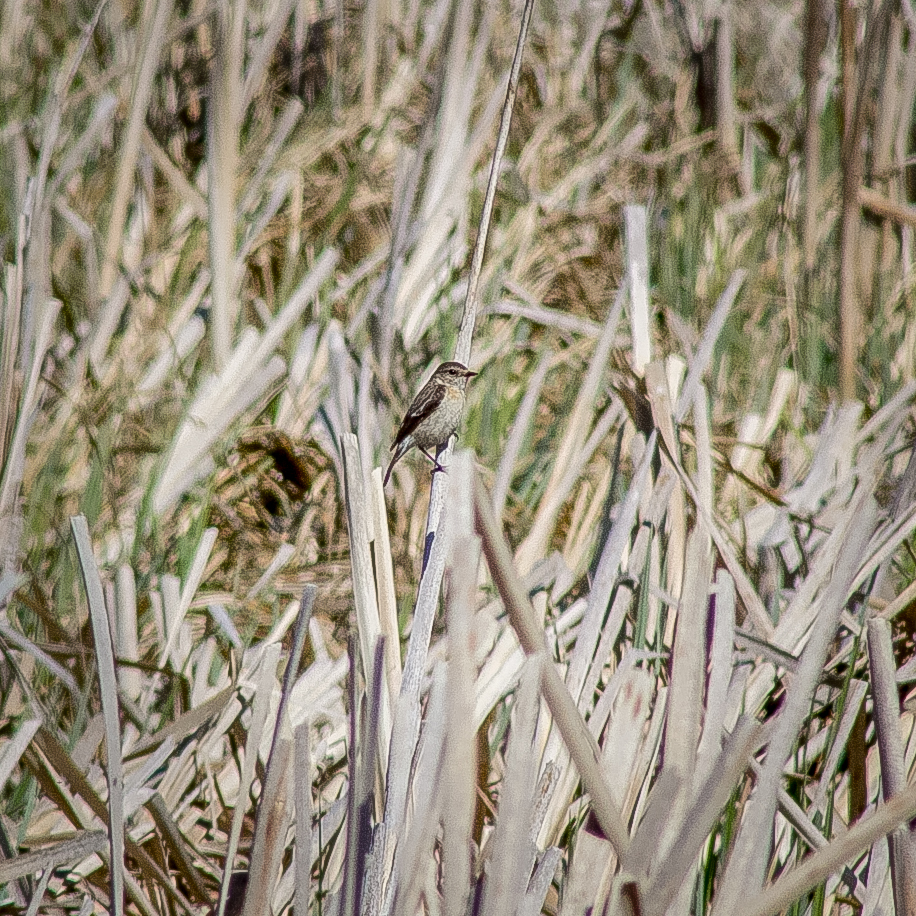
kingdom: Animalia
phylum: Chordata
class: Aves
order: Passeriformes
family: Emberizidae
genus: Emberiza
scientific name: Emberiza schoeniclus
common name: Reed bunting
